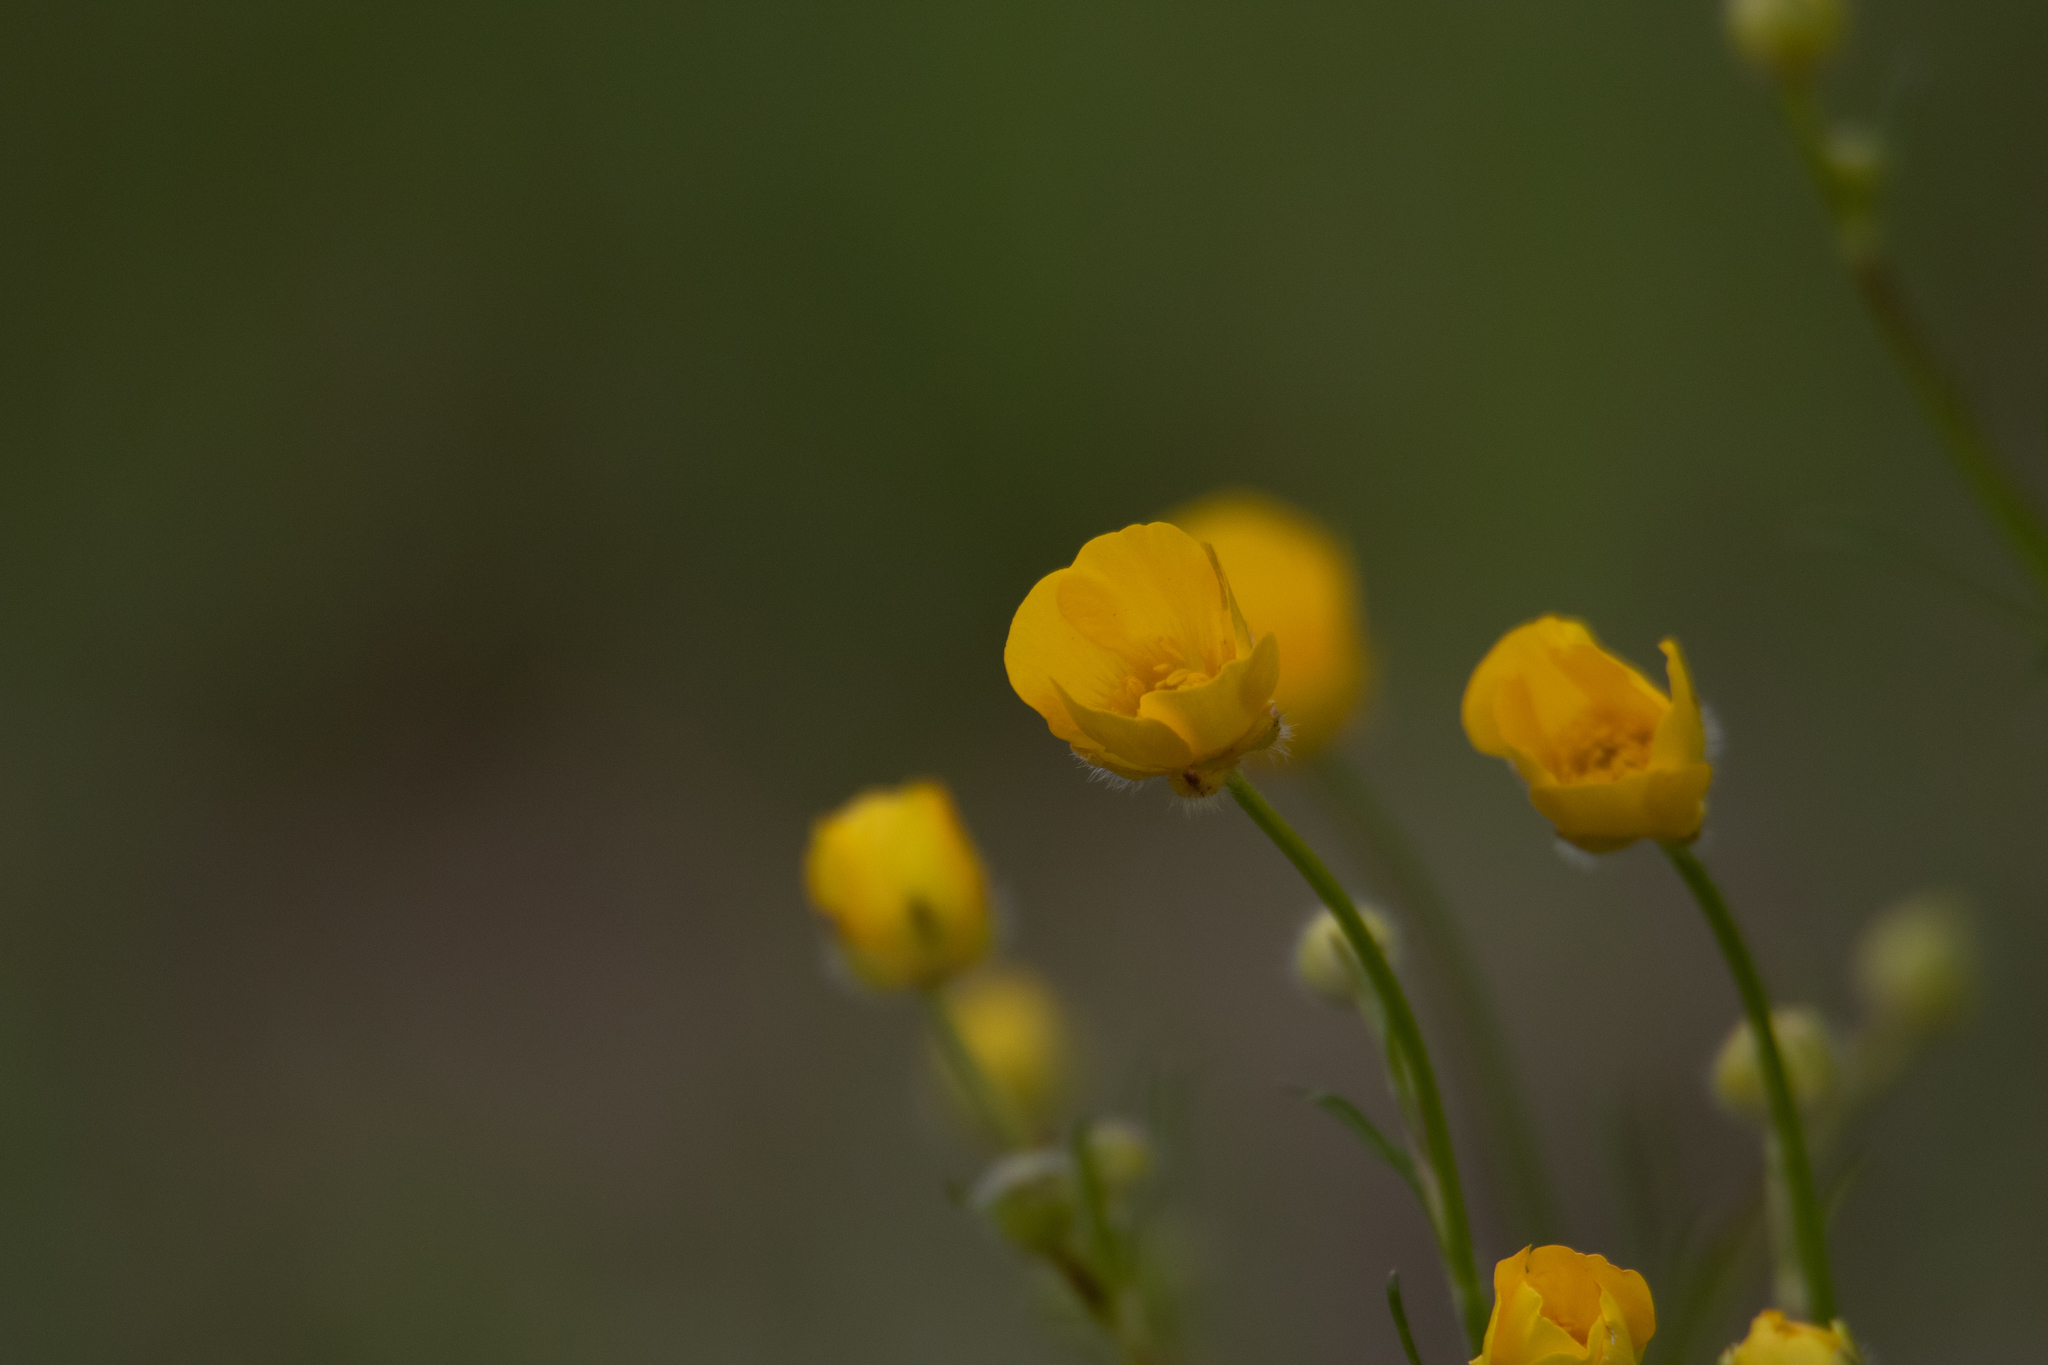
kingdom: Plantae
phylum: Tracheophyta
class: Magnoliopsida
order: Ranunculales
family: Ranunculaceae
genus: Ranunculus
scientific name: Ranunculus polyanthemos
